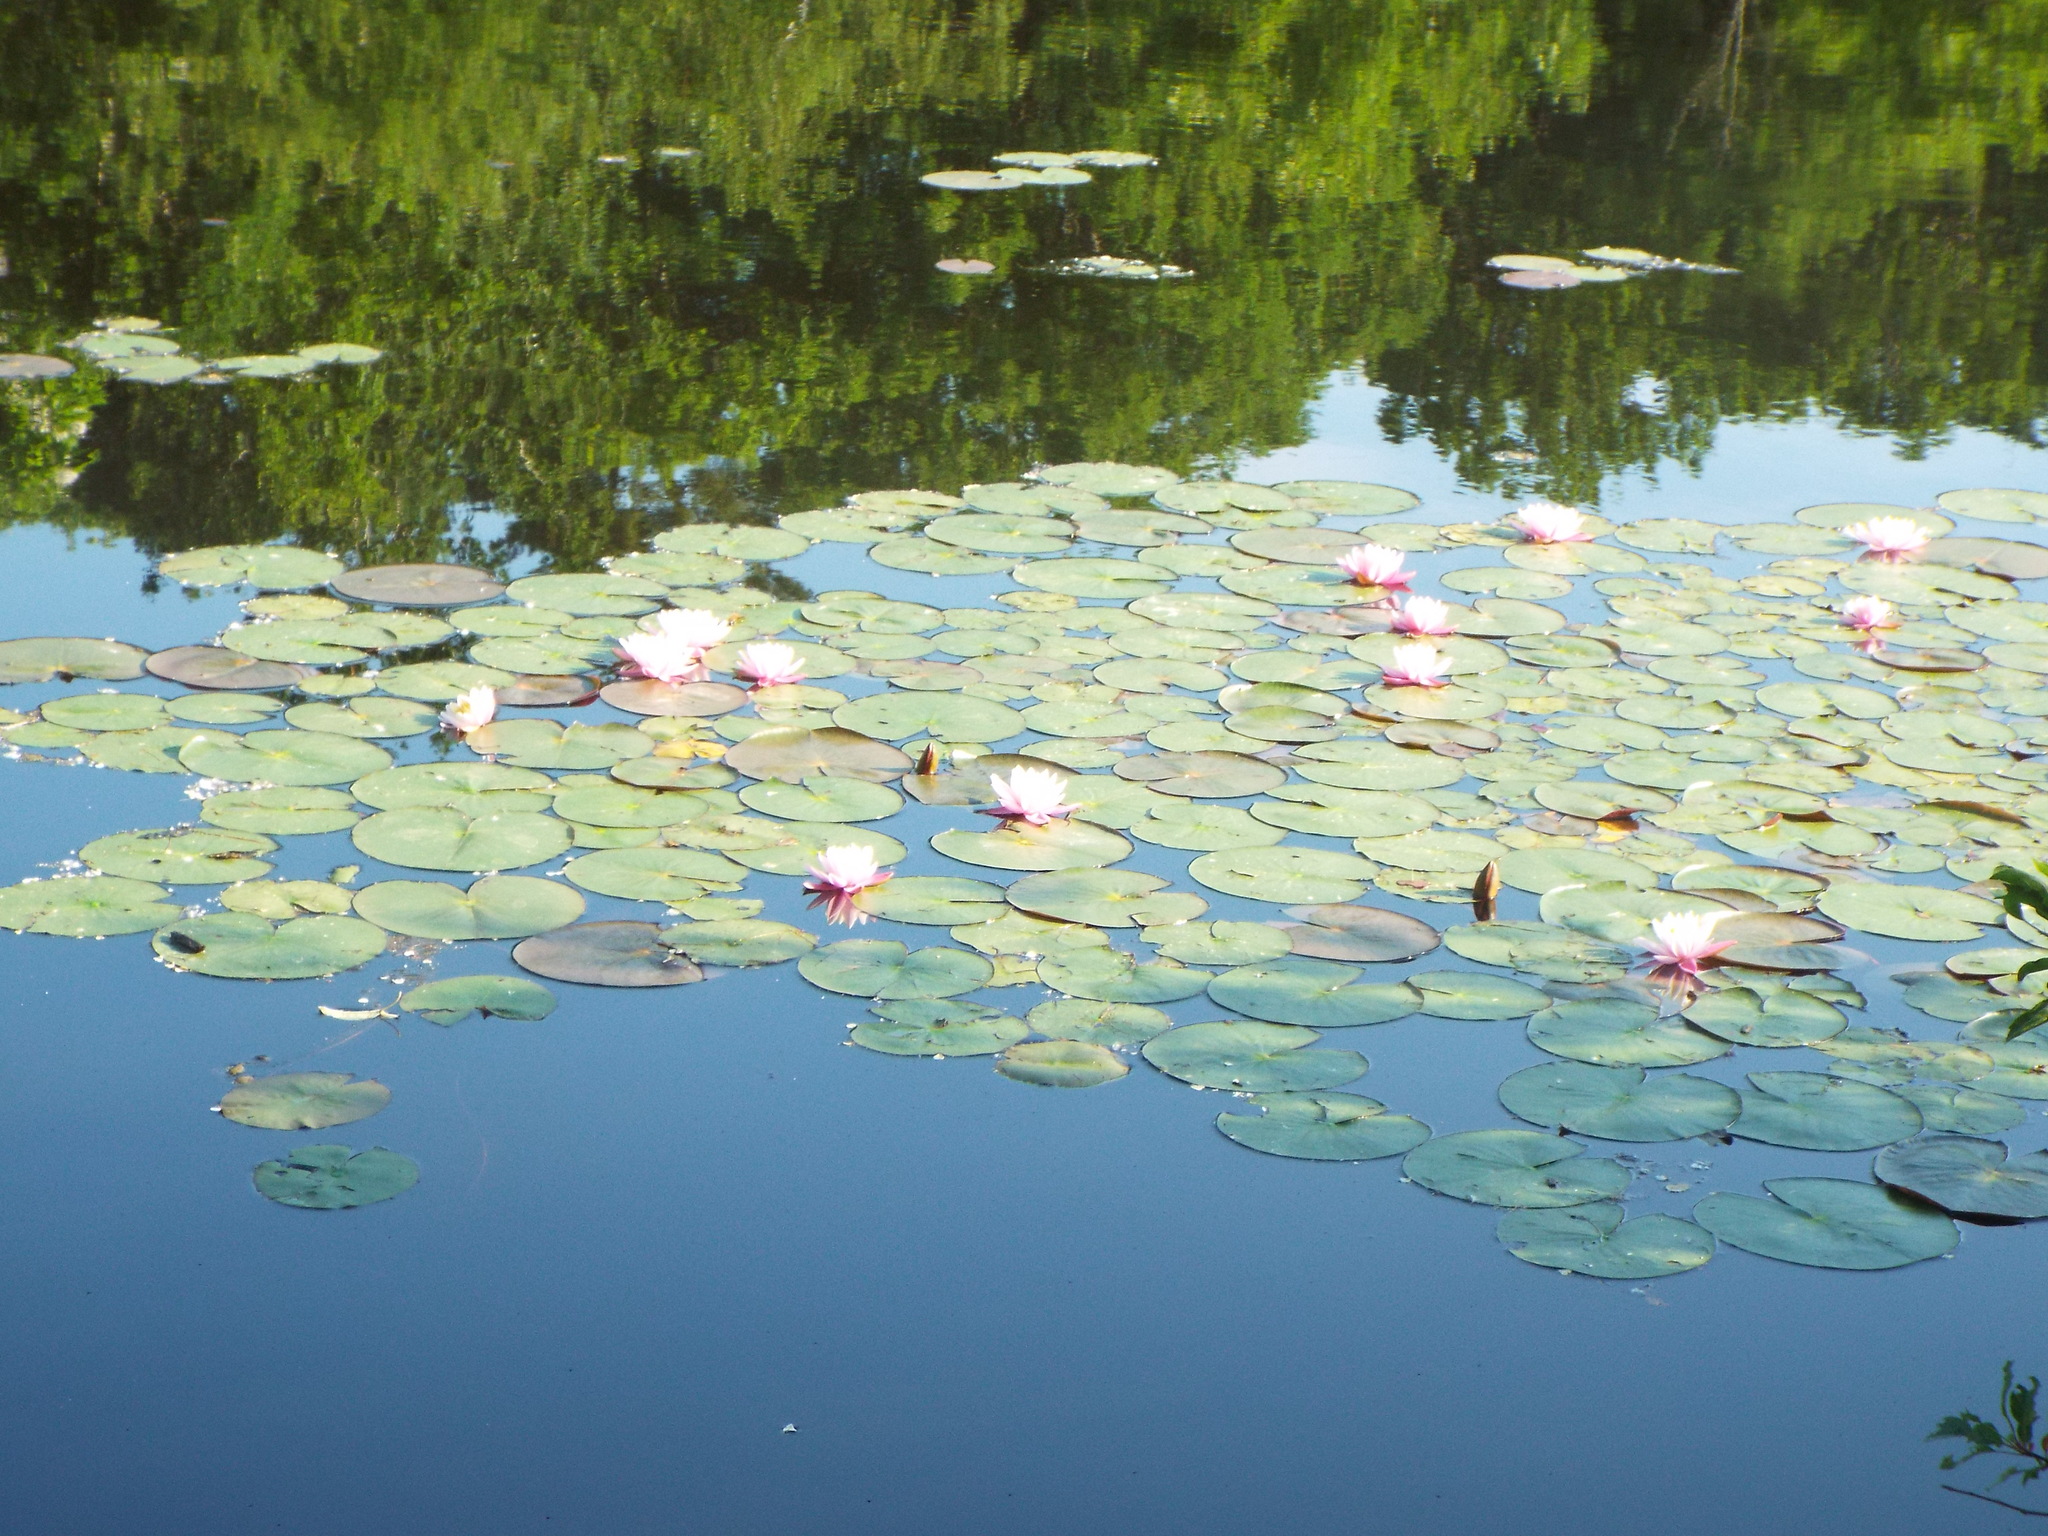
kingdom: Plantae
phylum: Tracheophyta
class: Magnoliopsida
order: Nymphaeales
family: Nymphaeaceae
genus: Nymphaea
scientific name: Nymphaea odorata
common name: Fragrant water-lily
